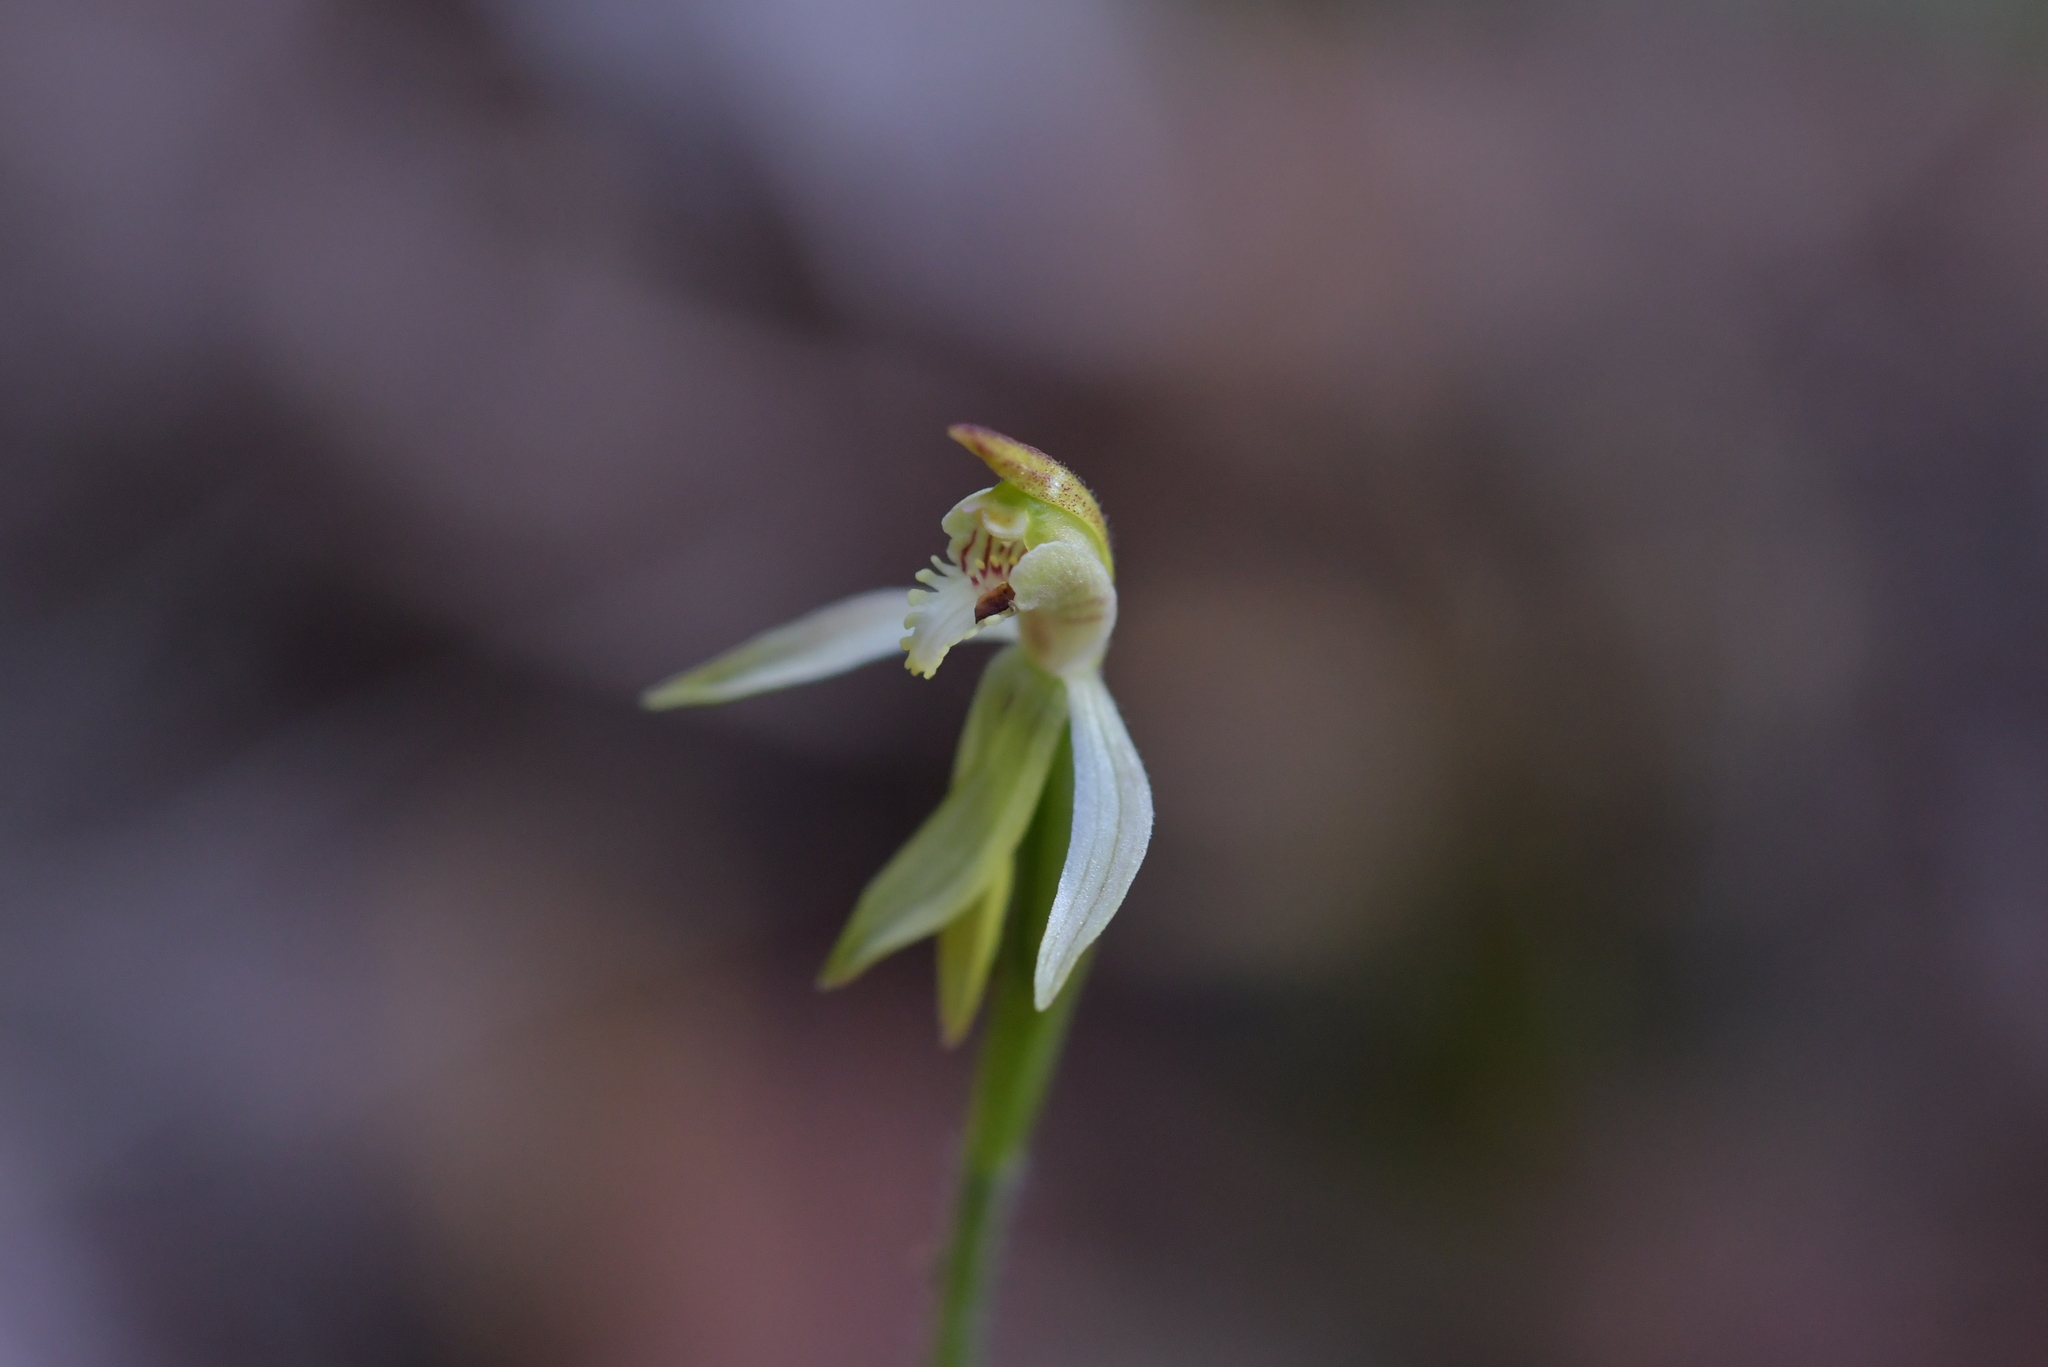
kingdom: Plantae
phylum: Tracheophyta
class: Liliopsida
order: Asparagales
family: Orchidaceae
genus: Caladenia
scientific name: Caladenia chlorostyla
